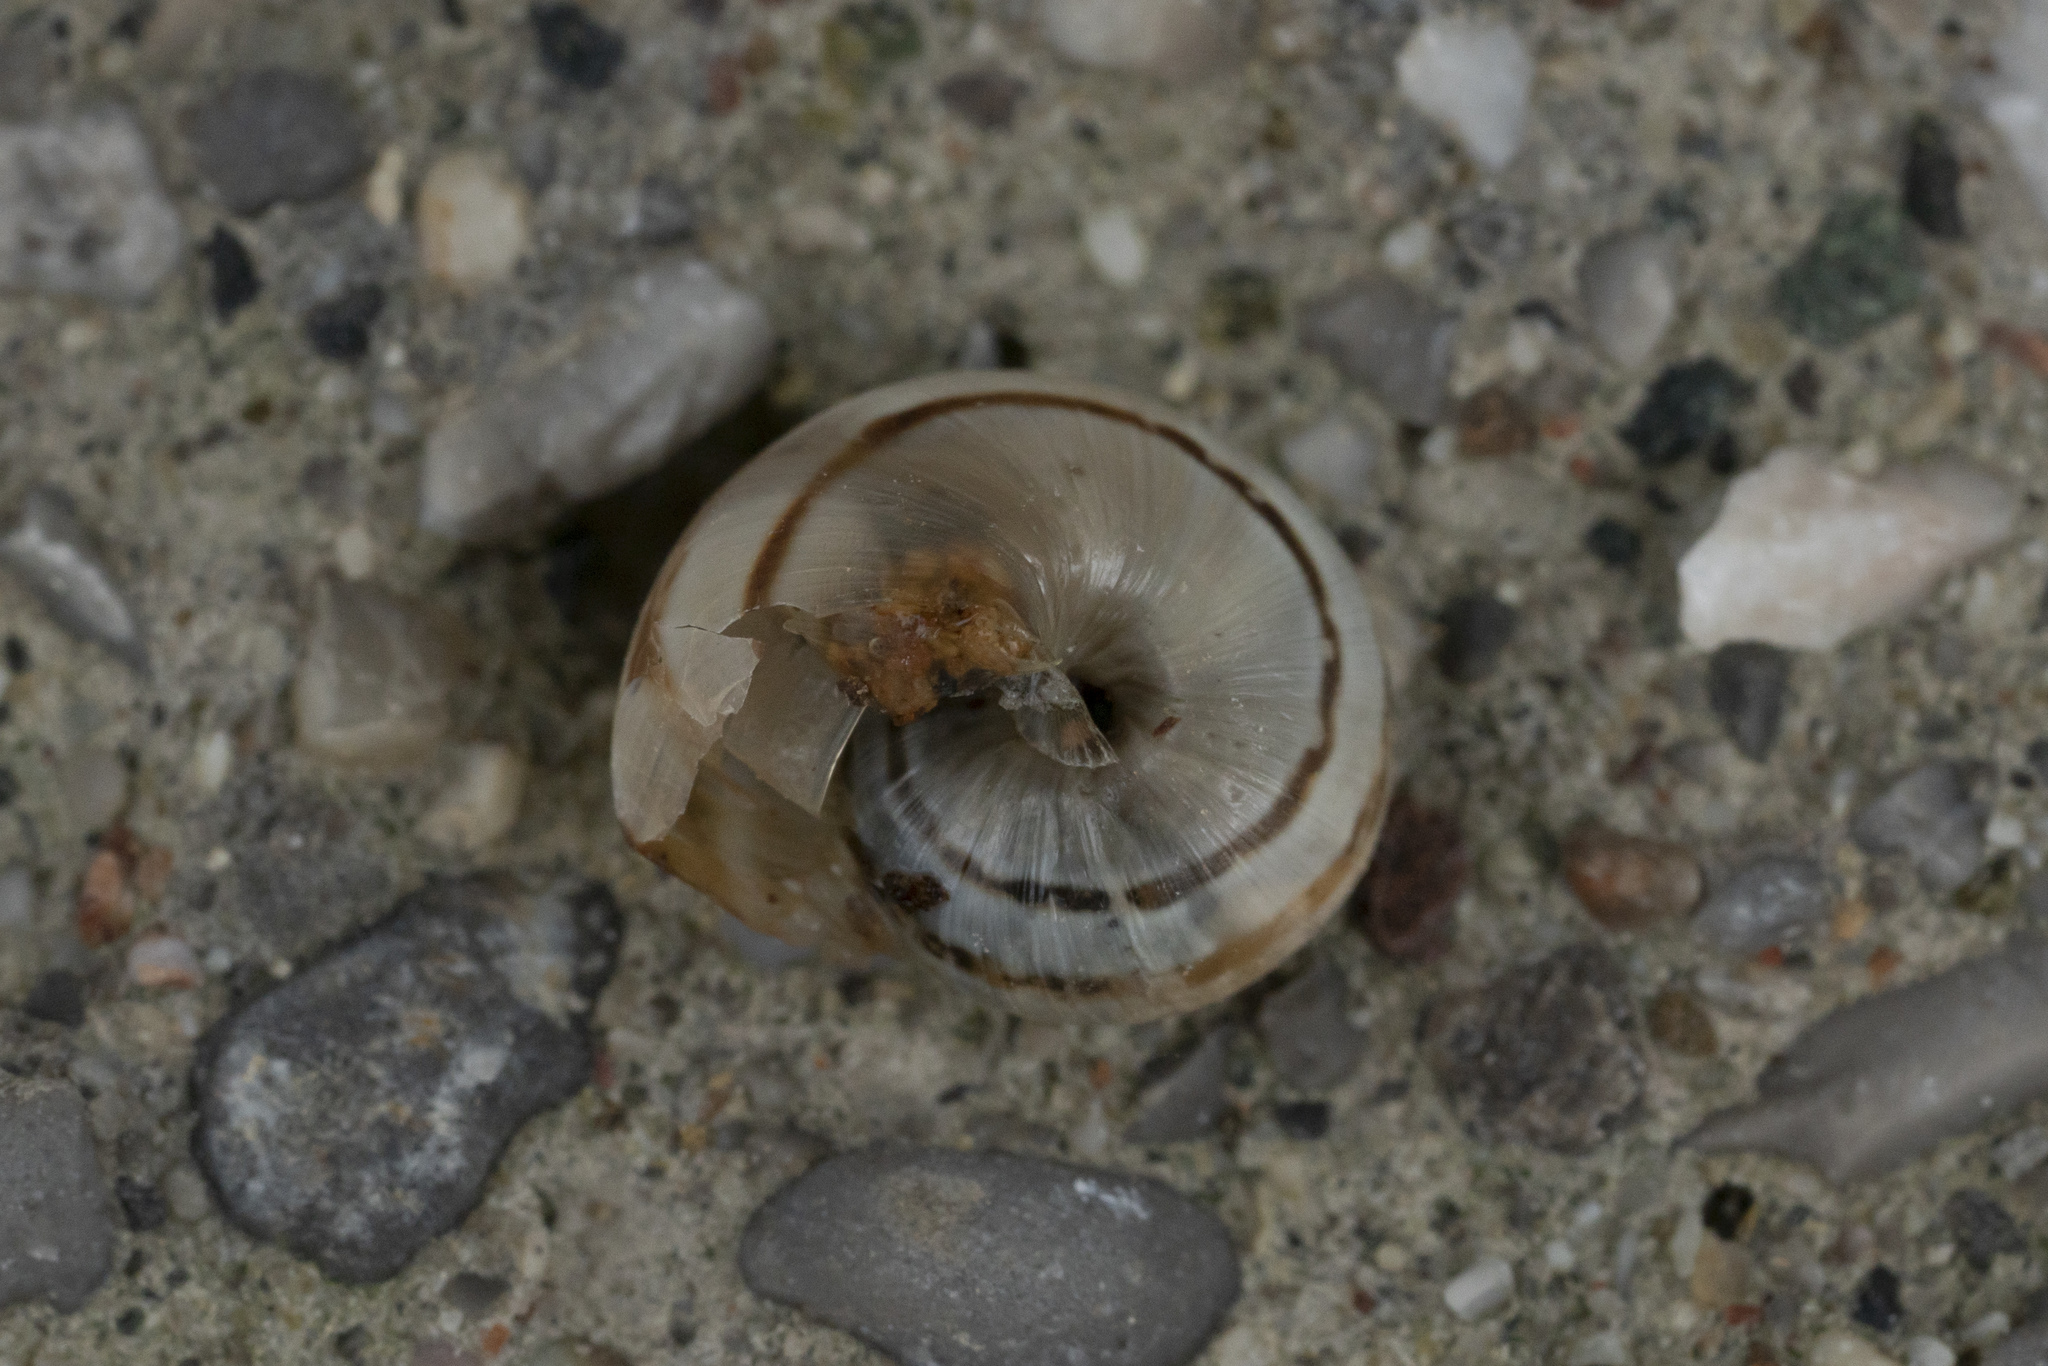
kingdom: Animalia
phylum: Mollusca
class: Gastropoda
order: Stylommatophora
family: Helicidae
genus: Eobania
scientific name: Eobania vermiculata
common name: Chocolateband snail
